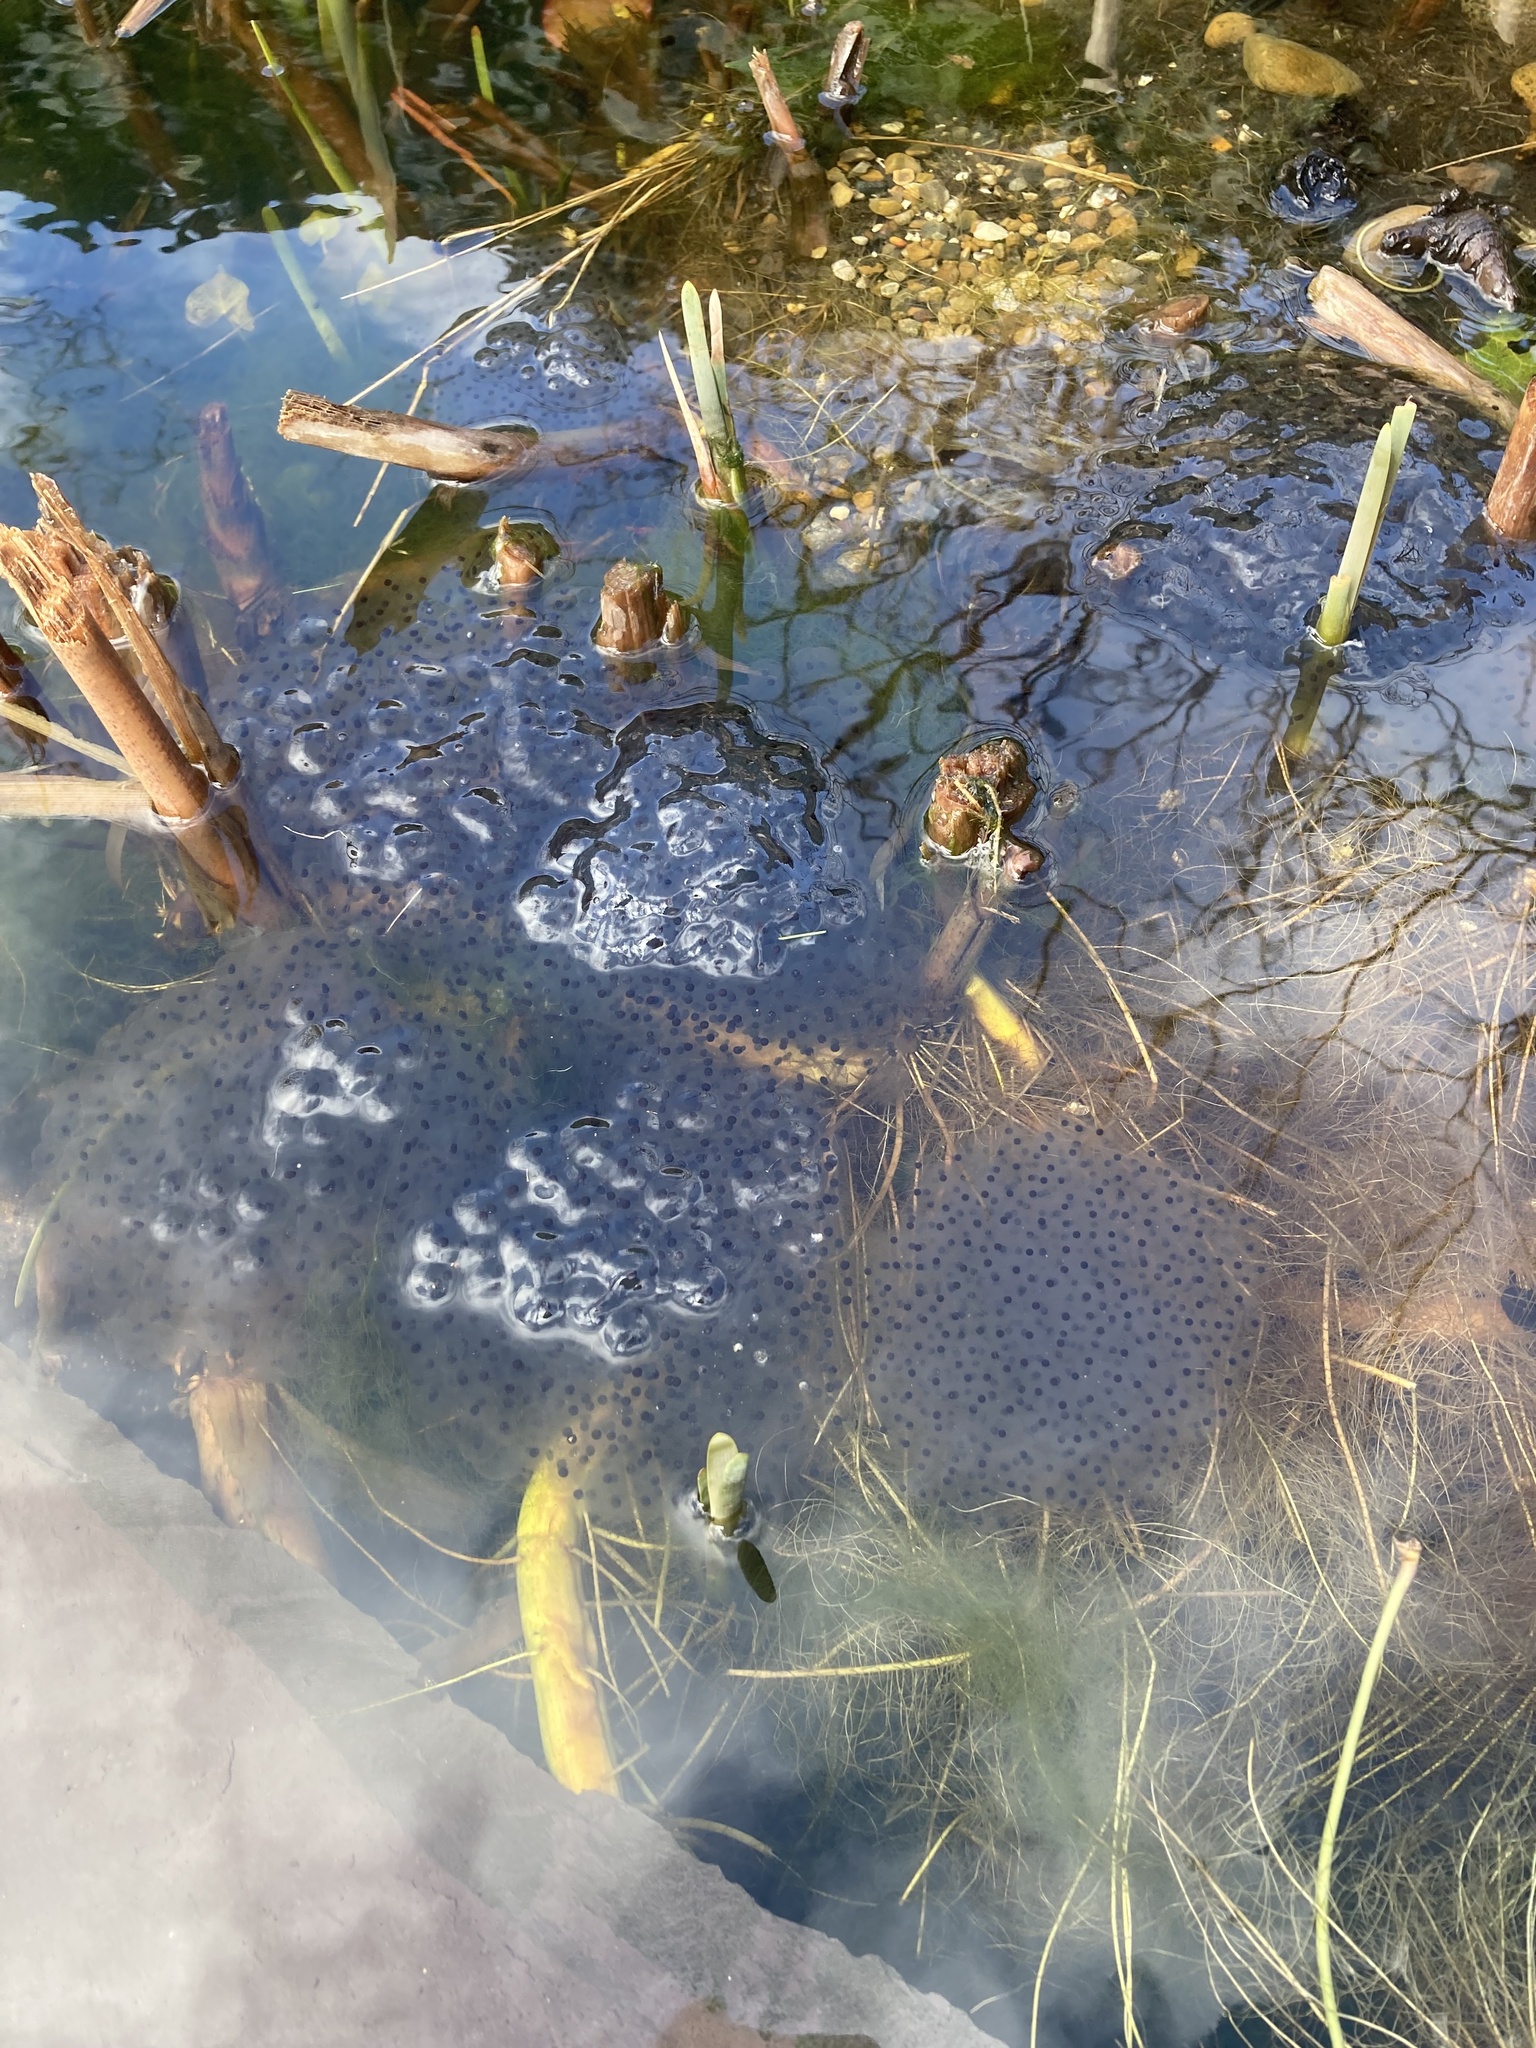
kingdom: Animalia
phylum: Chordata
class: Amphibia
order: Anura
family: Ranidae
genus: Rana
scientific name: Rana temporaria
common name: Common frog
